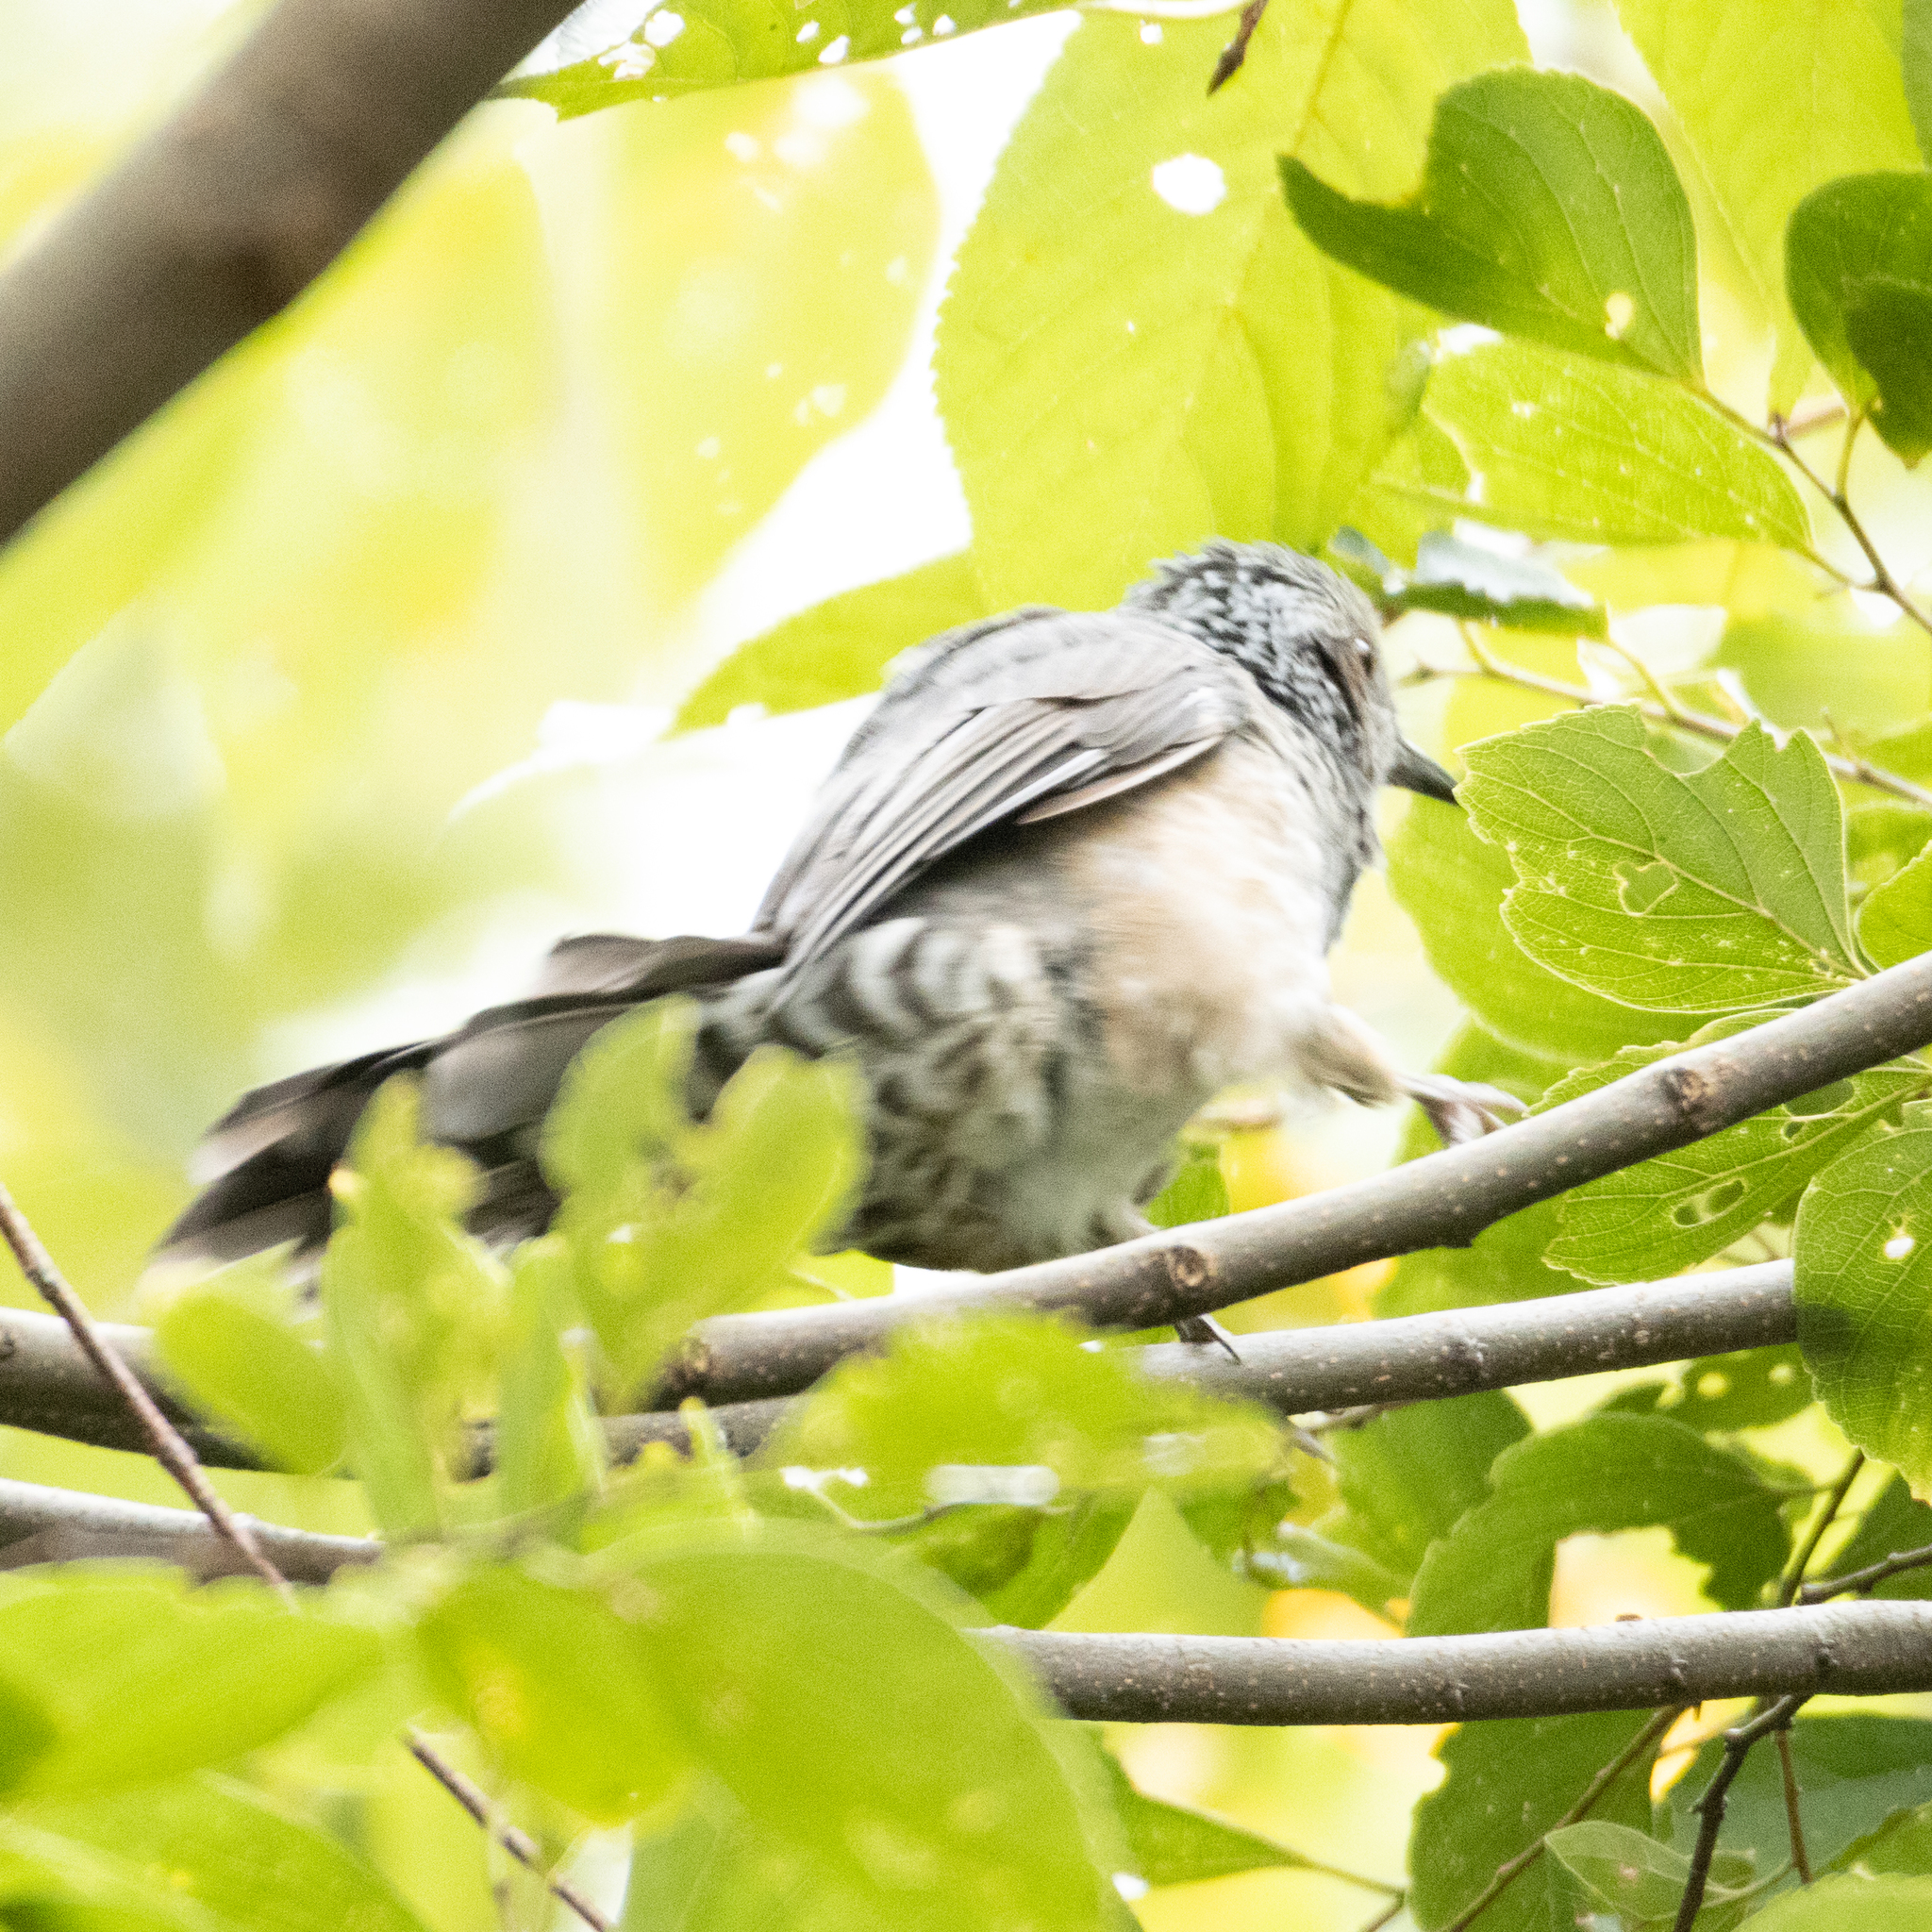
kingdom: Animalia
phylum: Chordata
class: Aves
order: Passeriformes
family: Pycnonotidae
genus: Hypsipetes
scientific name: Hypsipetes amaurotis
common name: Brown-eared bulbul
